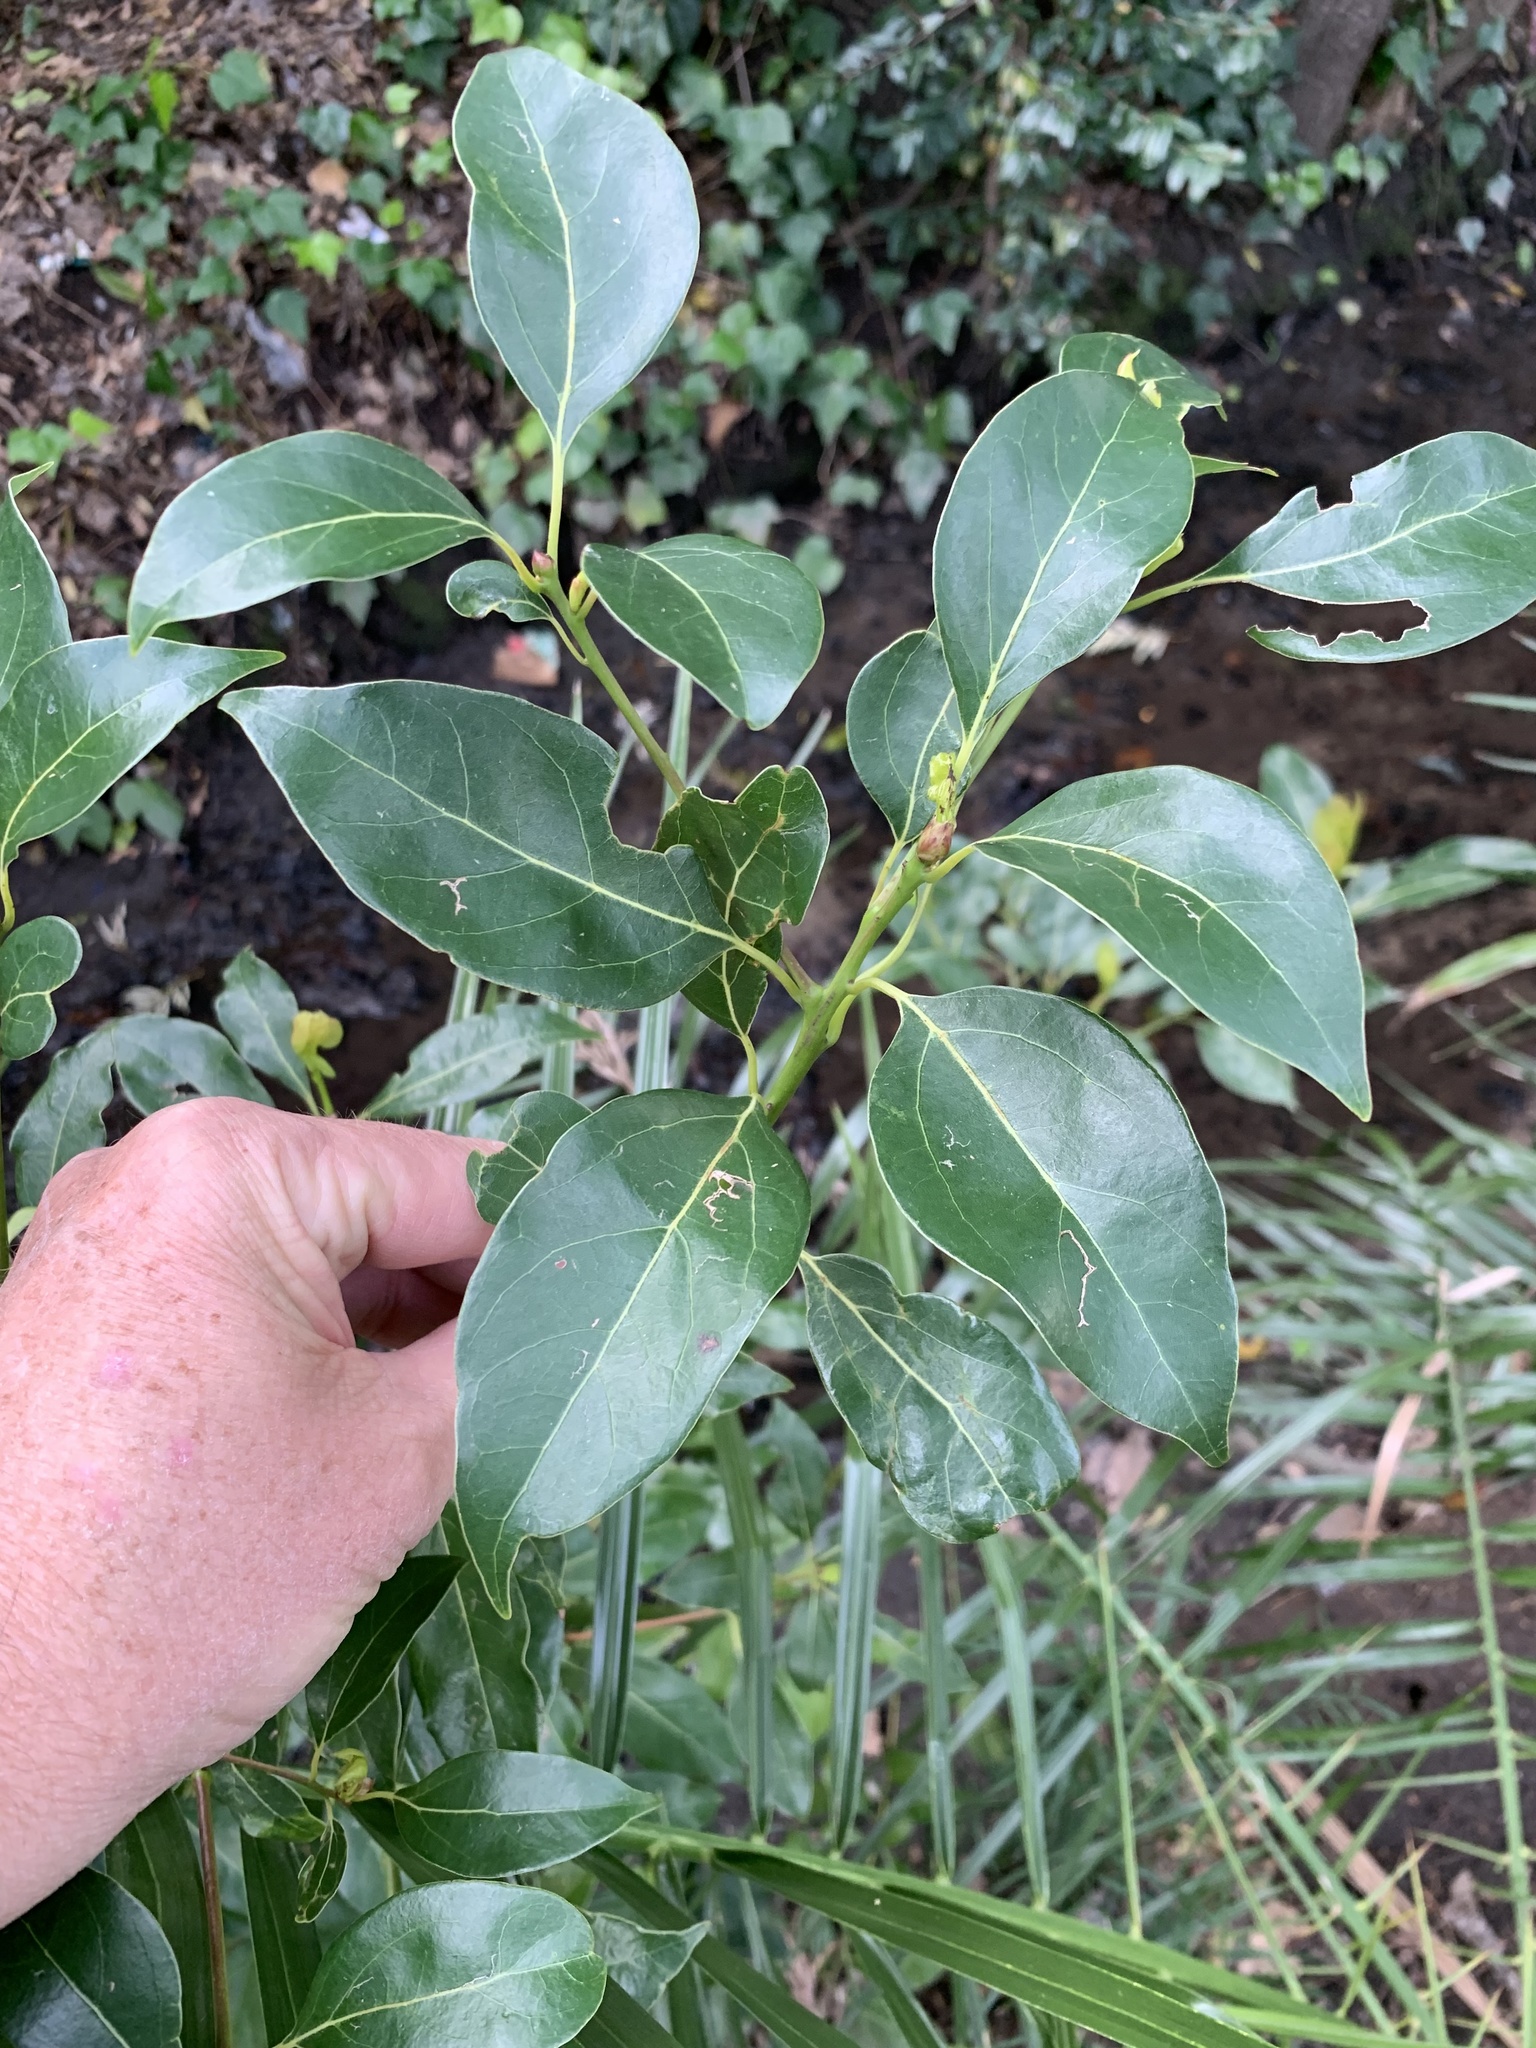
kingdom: Plantae
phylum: Tracheophyta
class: Magnoliopsida
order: Laurales
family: Lauraceae
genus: Cinnamomum
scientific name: Cinnamomum camphora
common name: Camphortree
